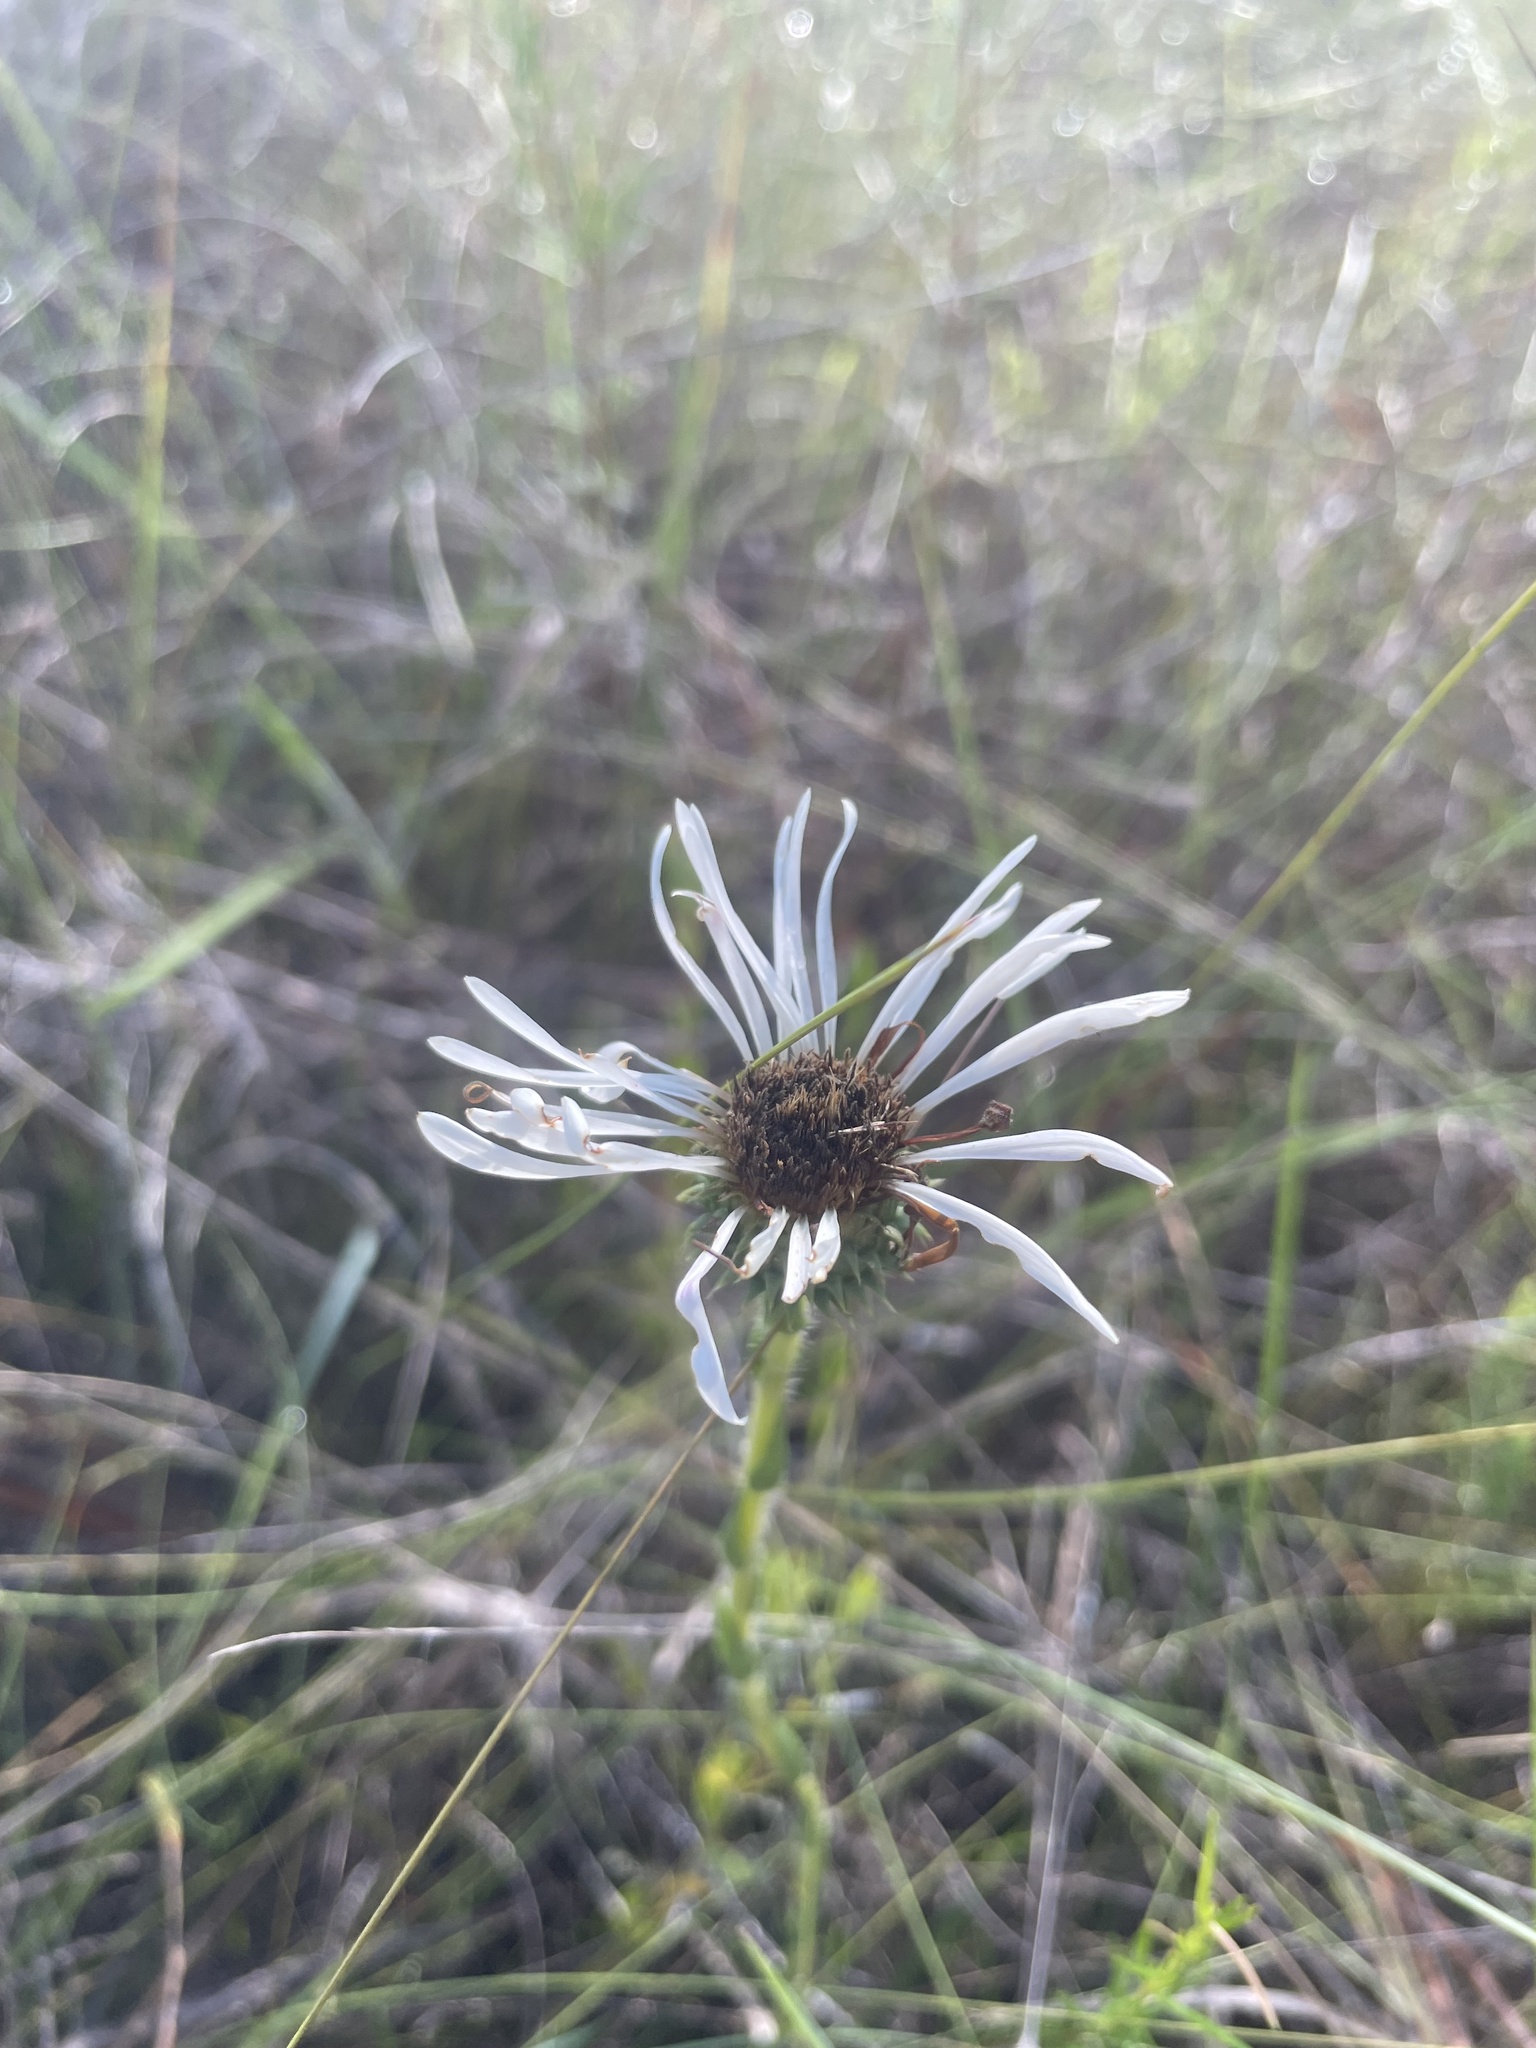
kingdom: Plantae
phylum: Tracheophyta
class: Magnoliopsida
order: Asterales
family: Asteraceae
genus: Eurybia
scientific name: Eurybia eryngiifolia
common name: Thistle-leaf aster
